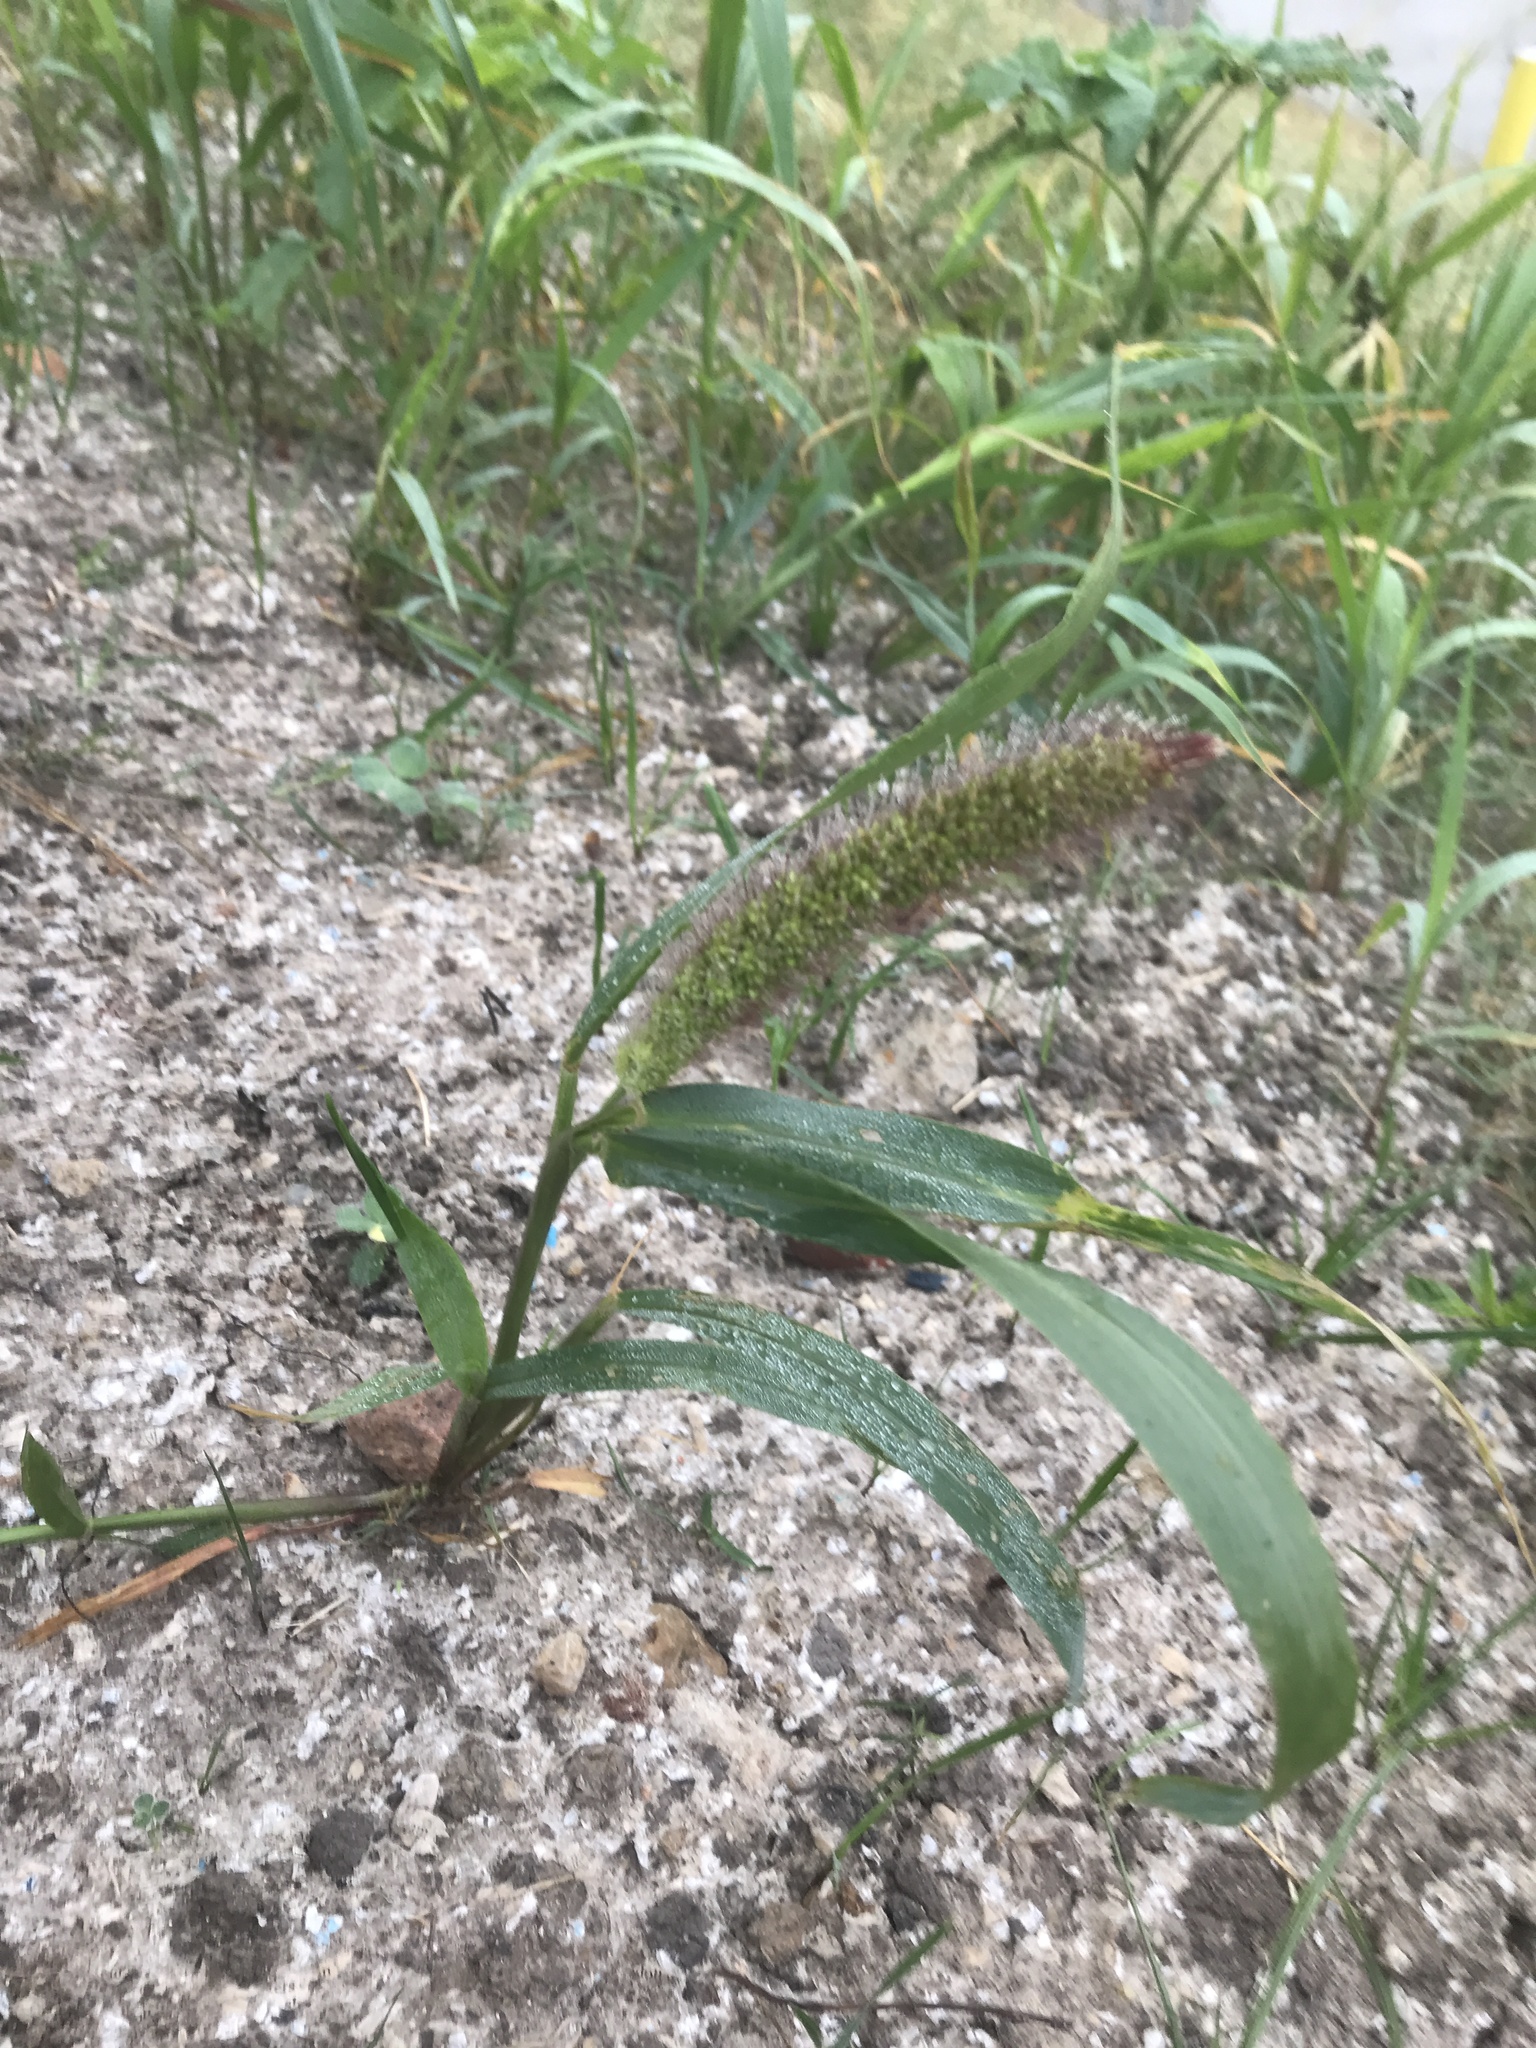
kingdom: Plantae
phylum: Tracheophyta
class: Liliopsida
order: Poales
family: Poaceae
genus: Setaria
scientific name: Setaria viridis
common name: Green bristlegrass
